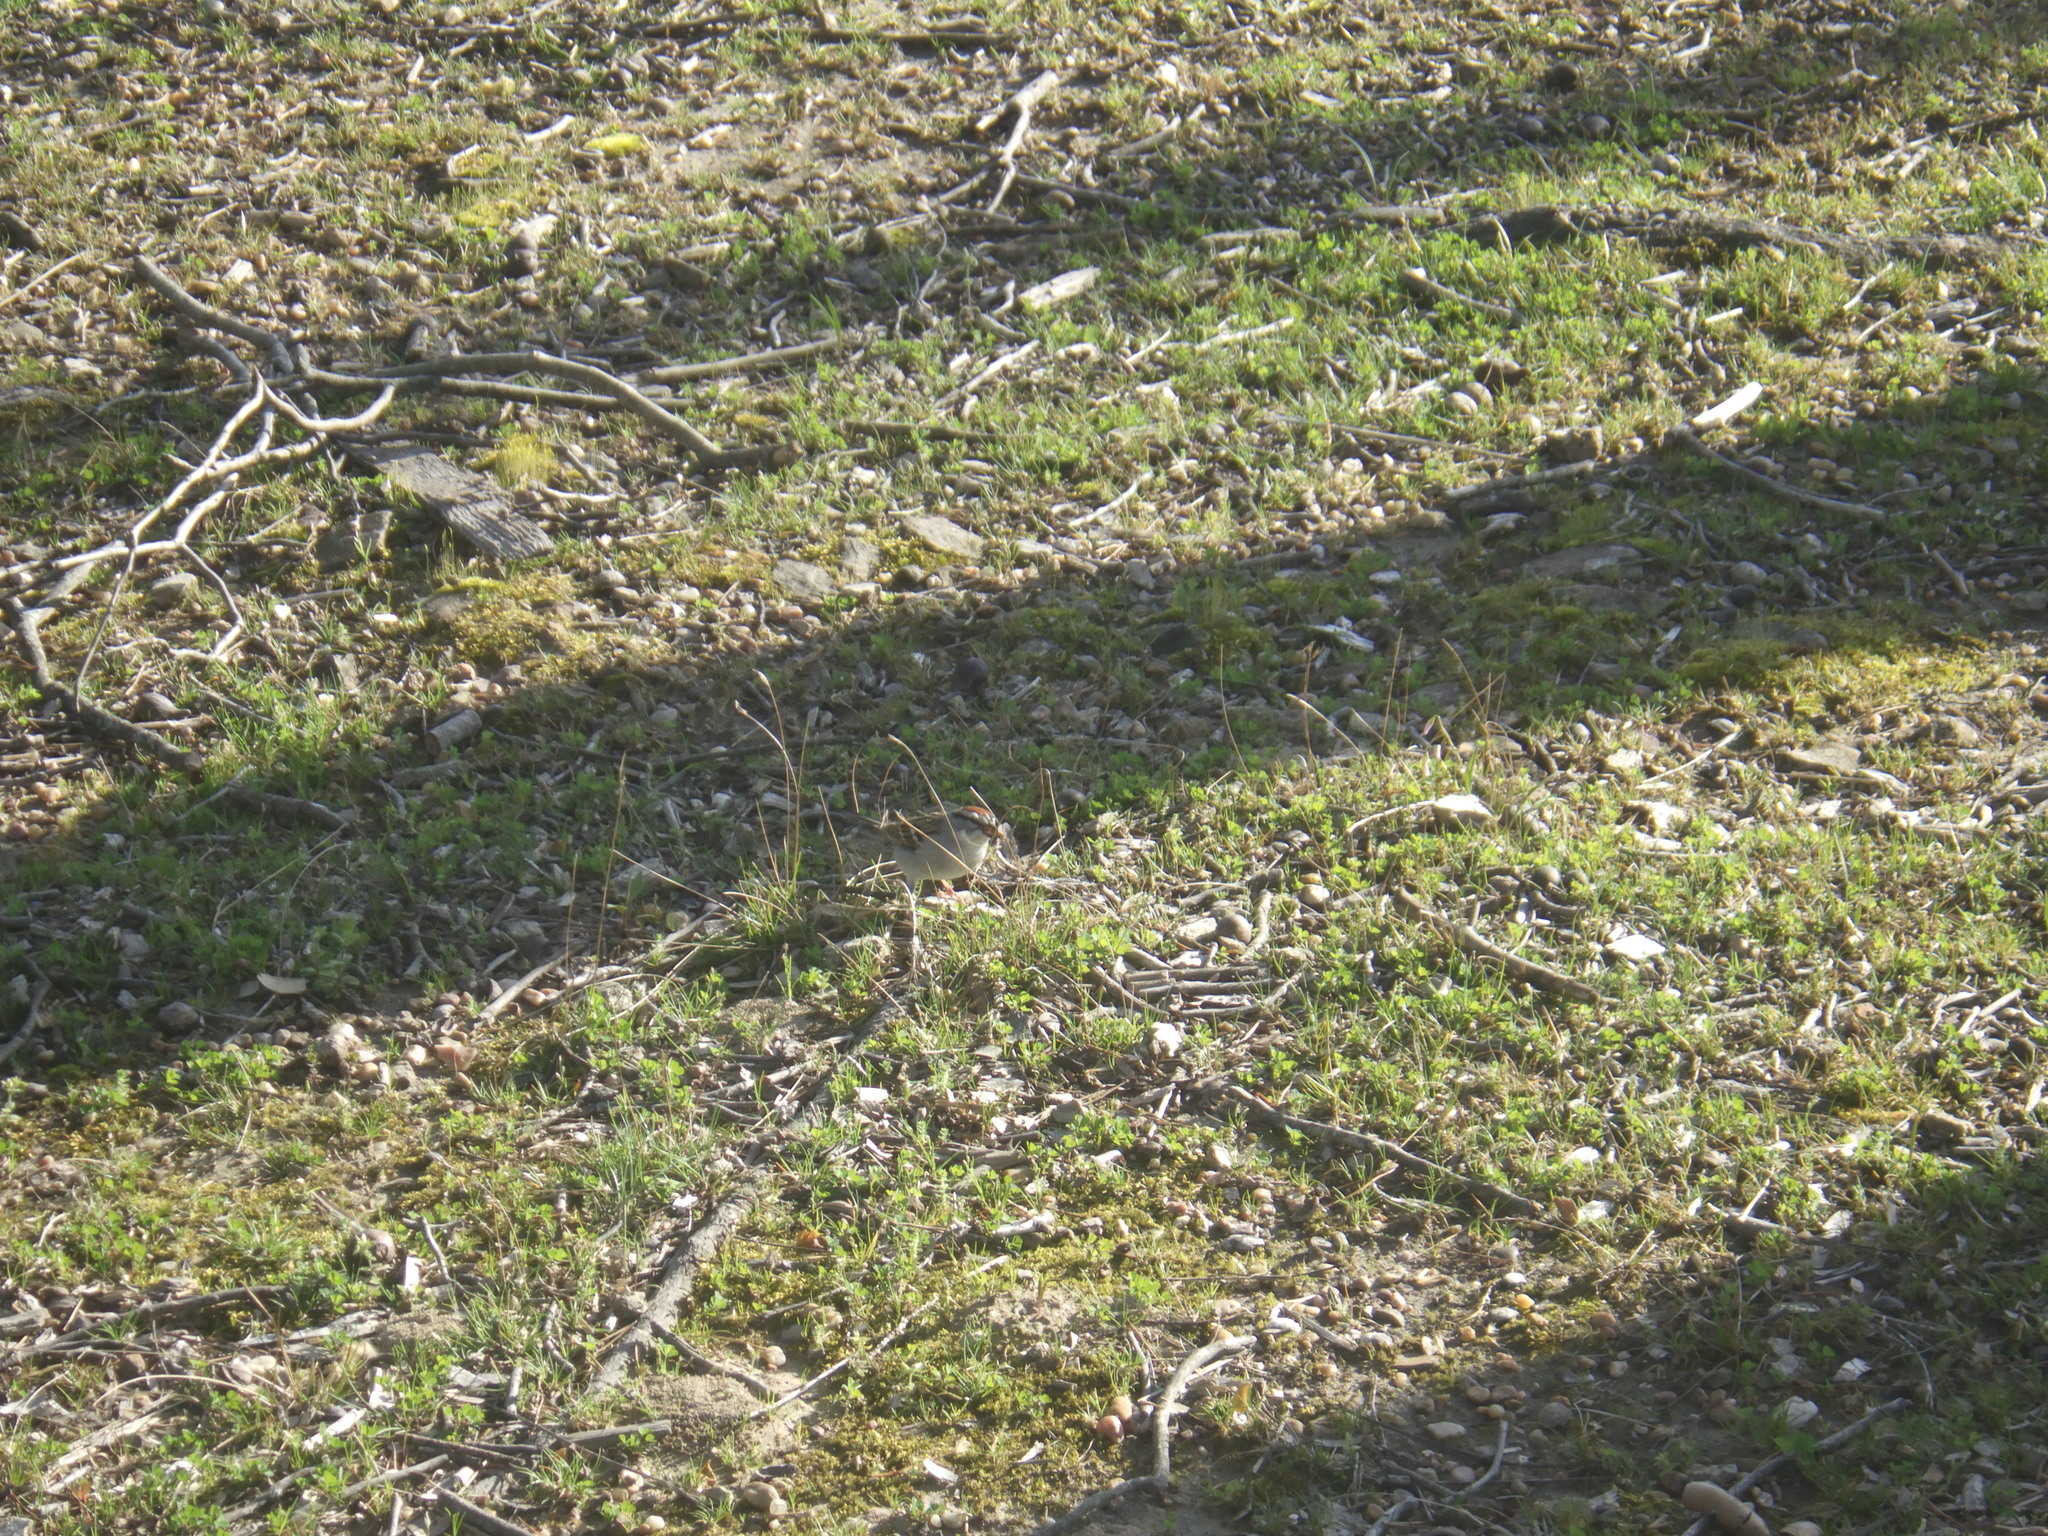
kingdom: Animalia
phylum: Chordata
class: Aves
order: Passeriformes
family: Passerellidae
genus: Spizella
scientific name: Spizella passerina
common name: Chipping sparrow
